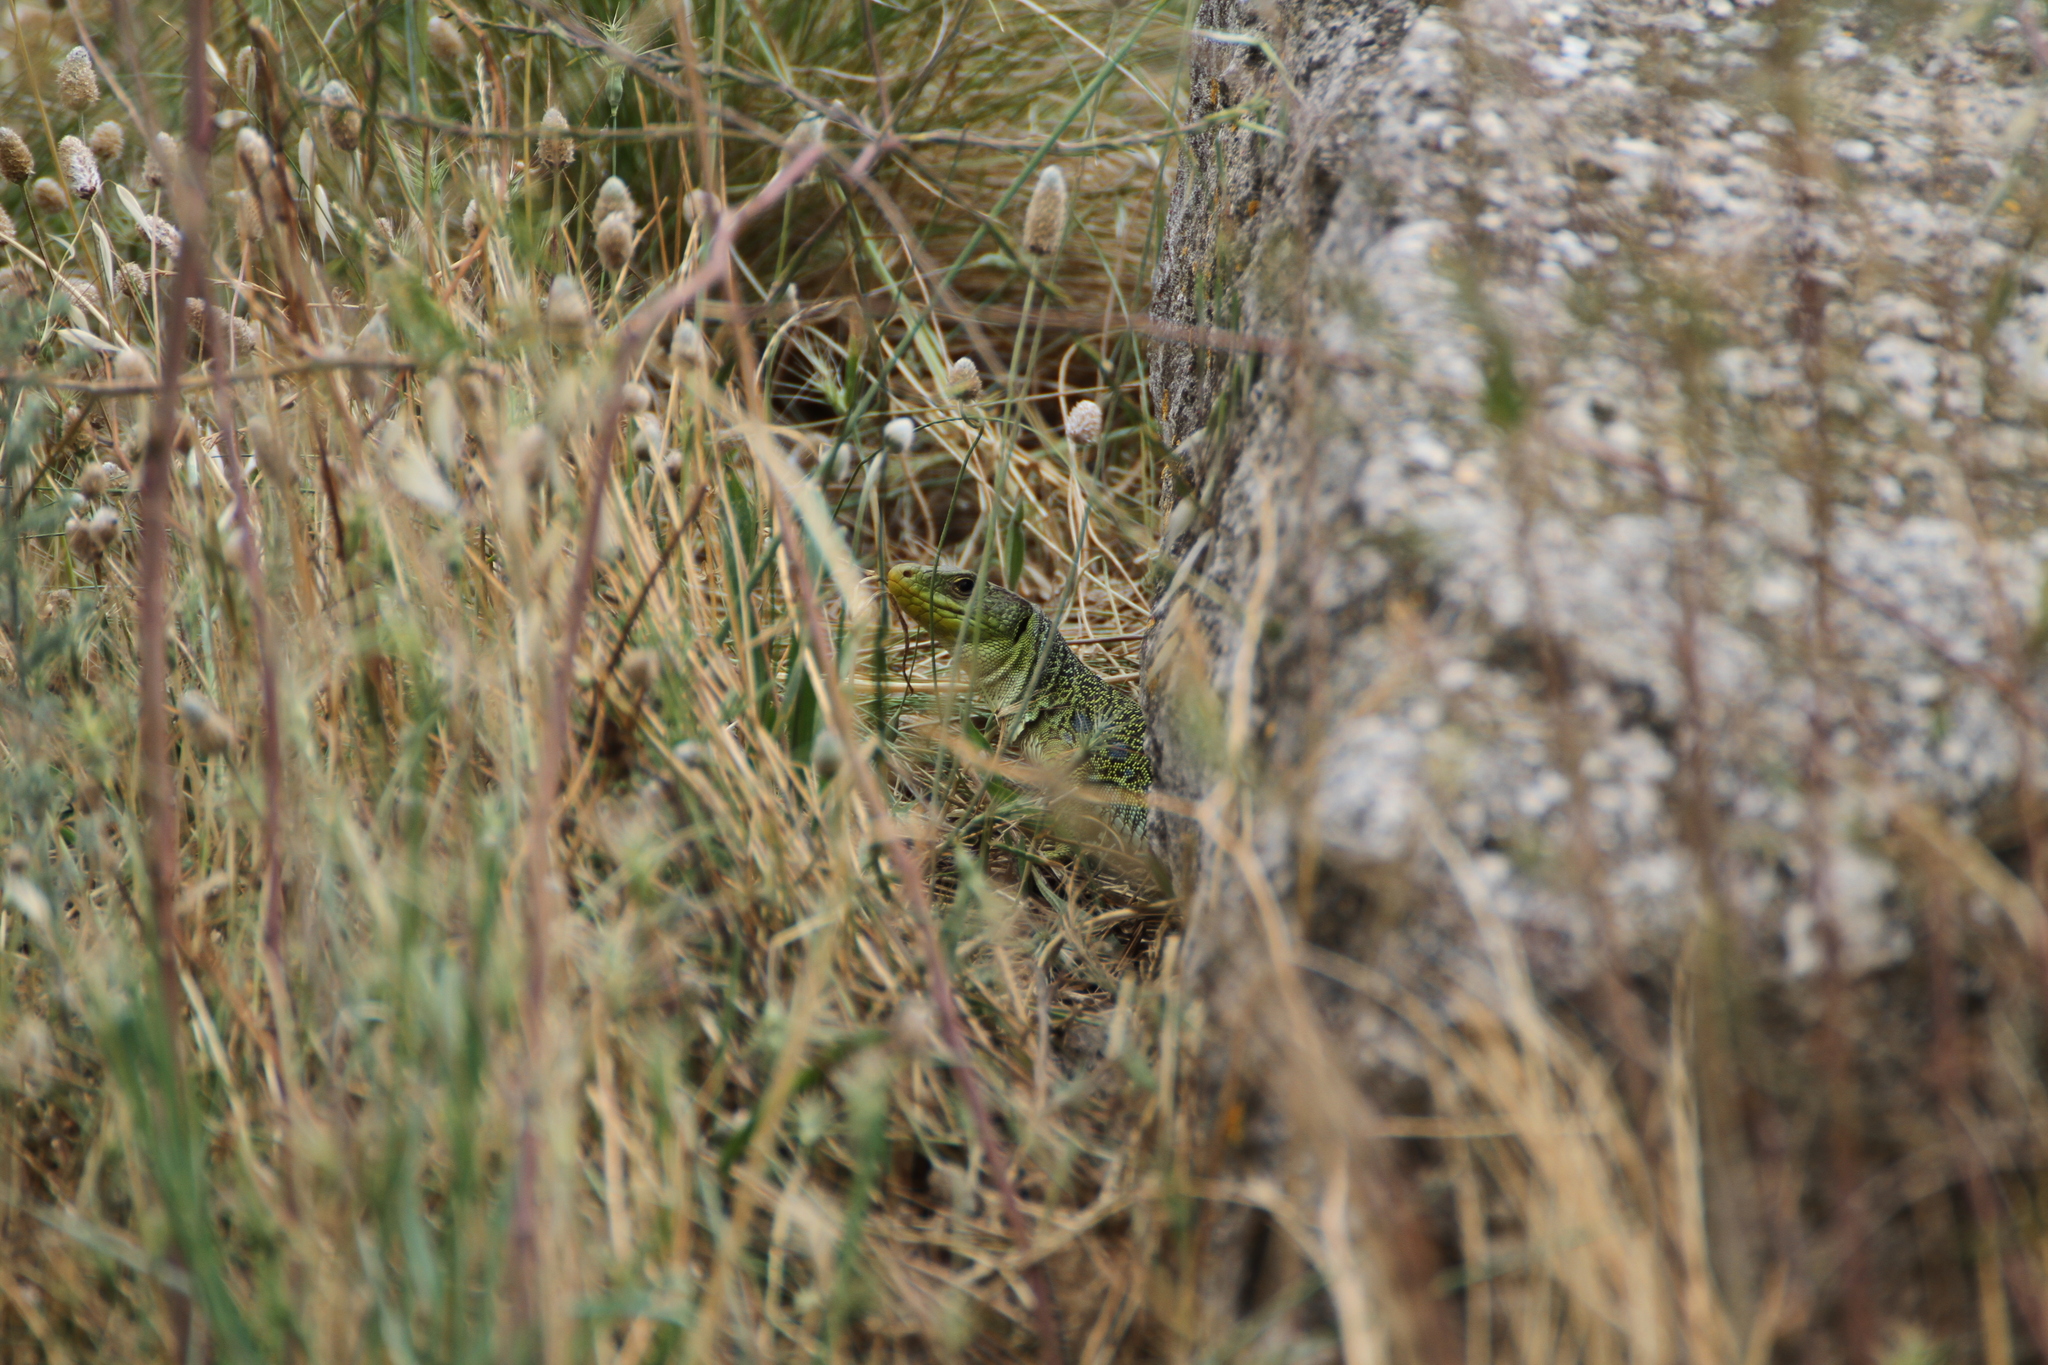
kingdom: Animalia
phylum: Chordata
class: Squamata
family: Lacertidae
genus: Timon
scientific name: Timon lepidus
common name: Ocellated lizard
